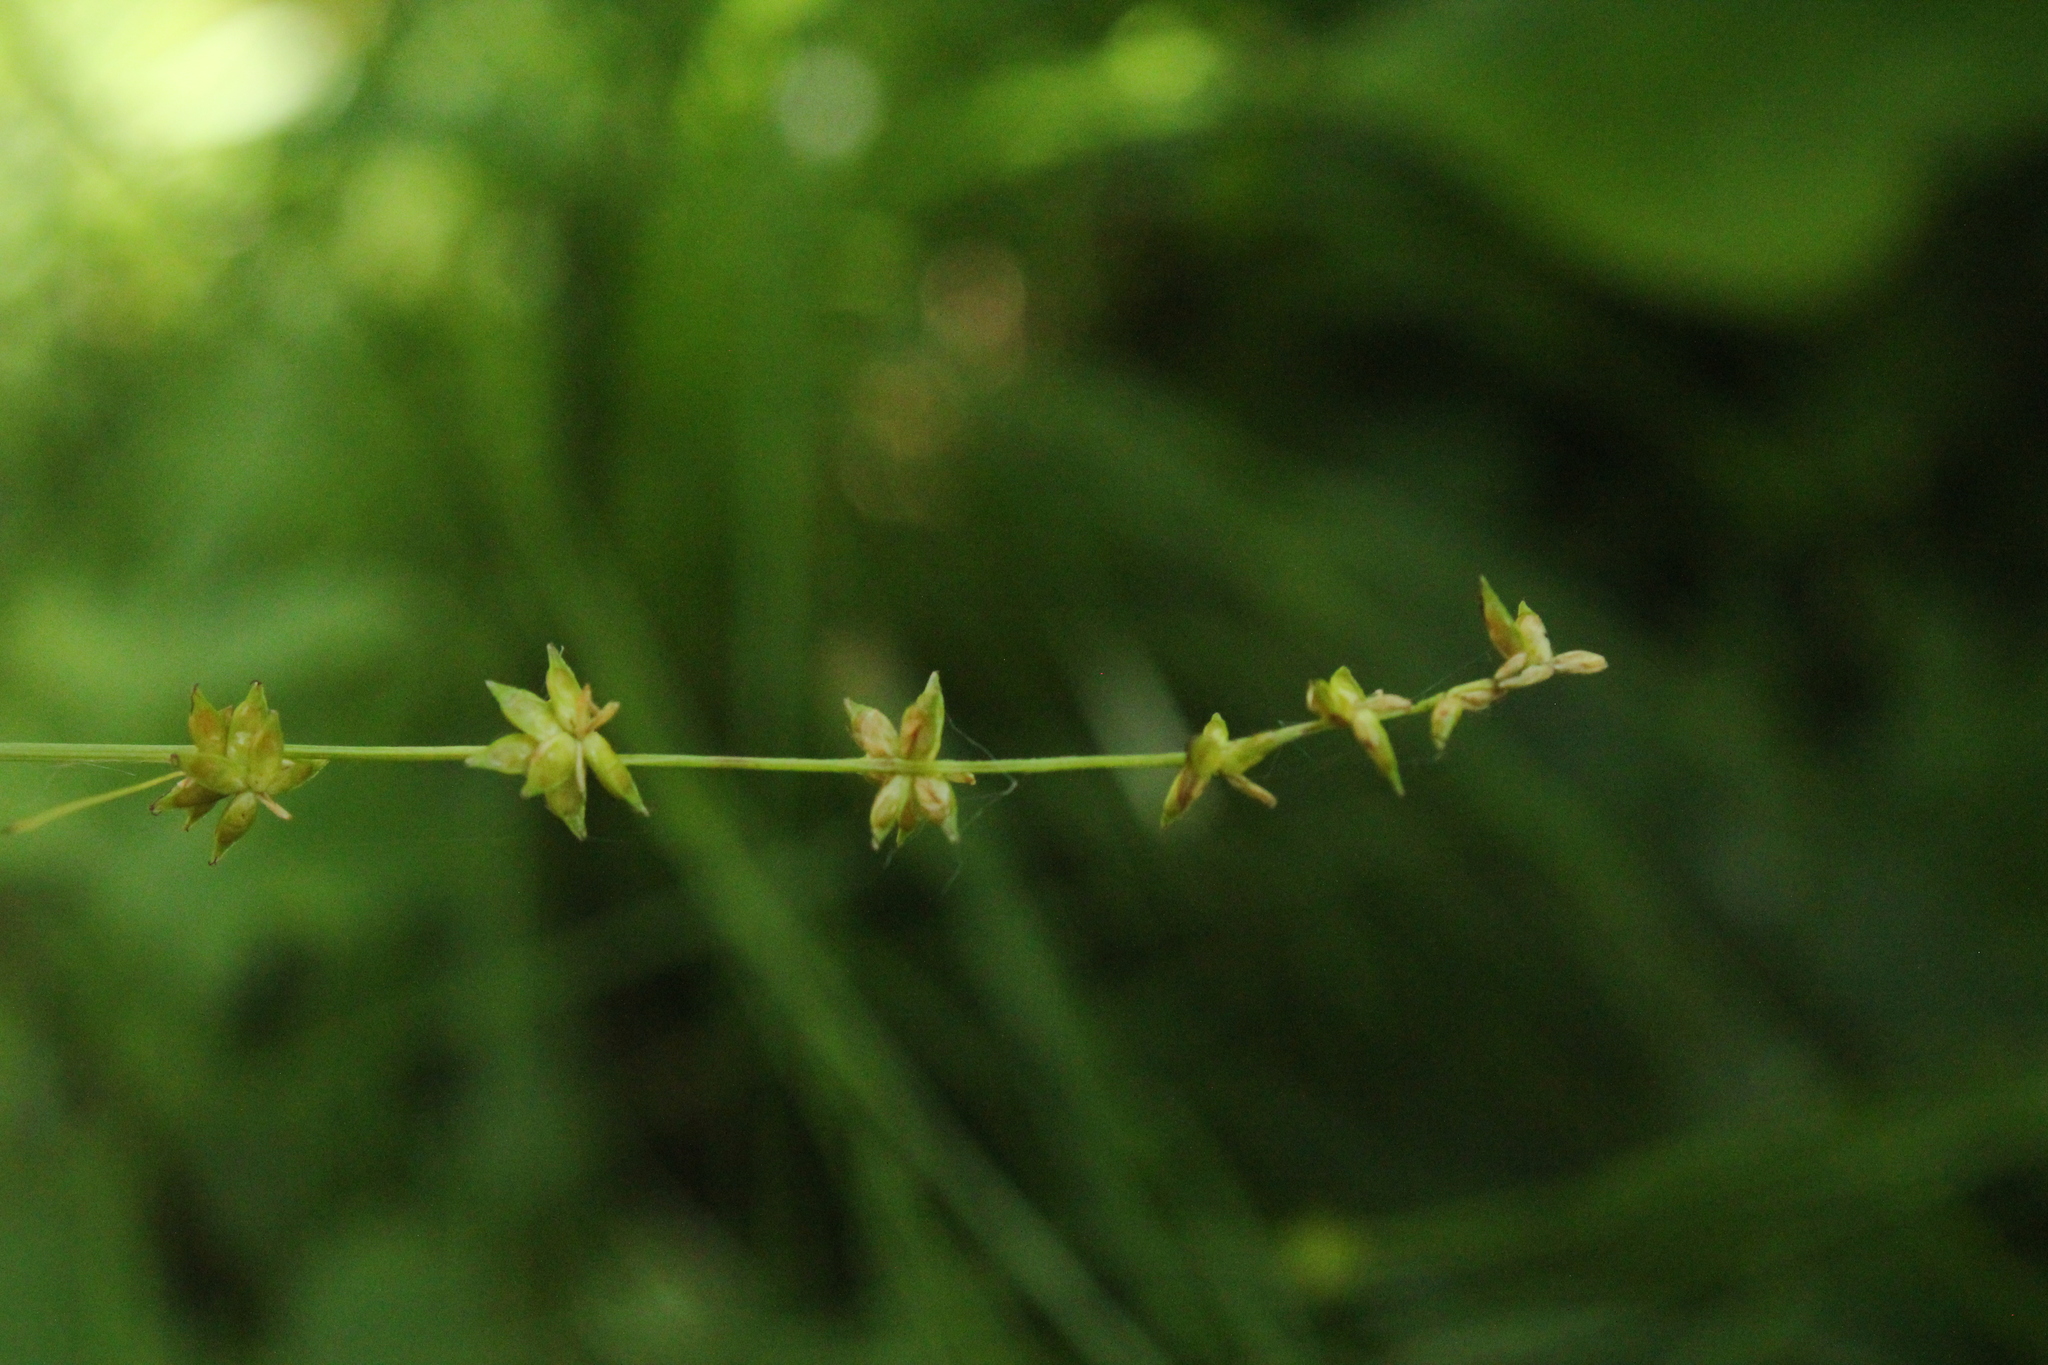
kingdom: Plantae
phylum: Tracheophyta
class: Liliopsida
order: Poales
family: Cyperaceae
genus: Carex
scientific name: Carex radiata
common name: Eastern star sedge
